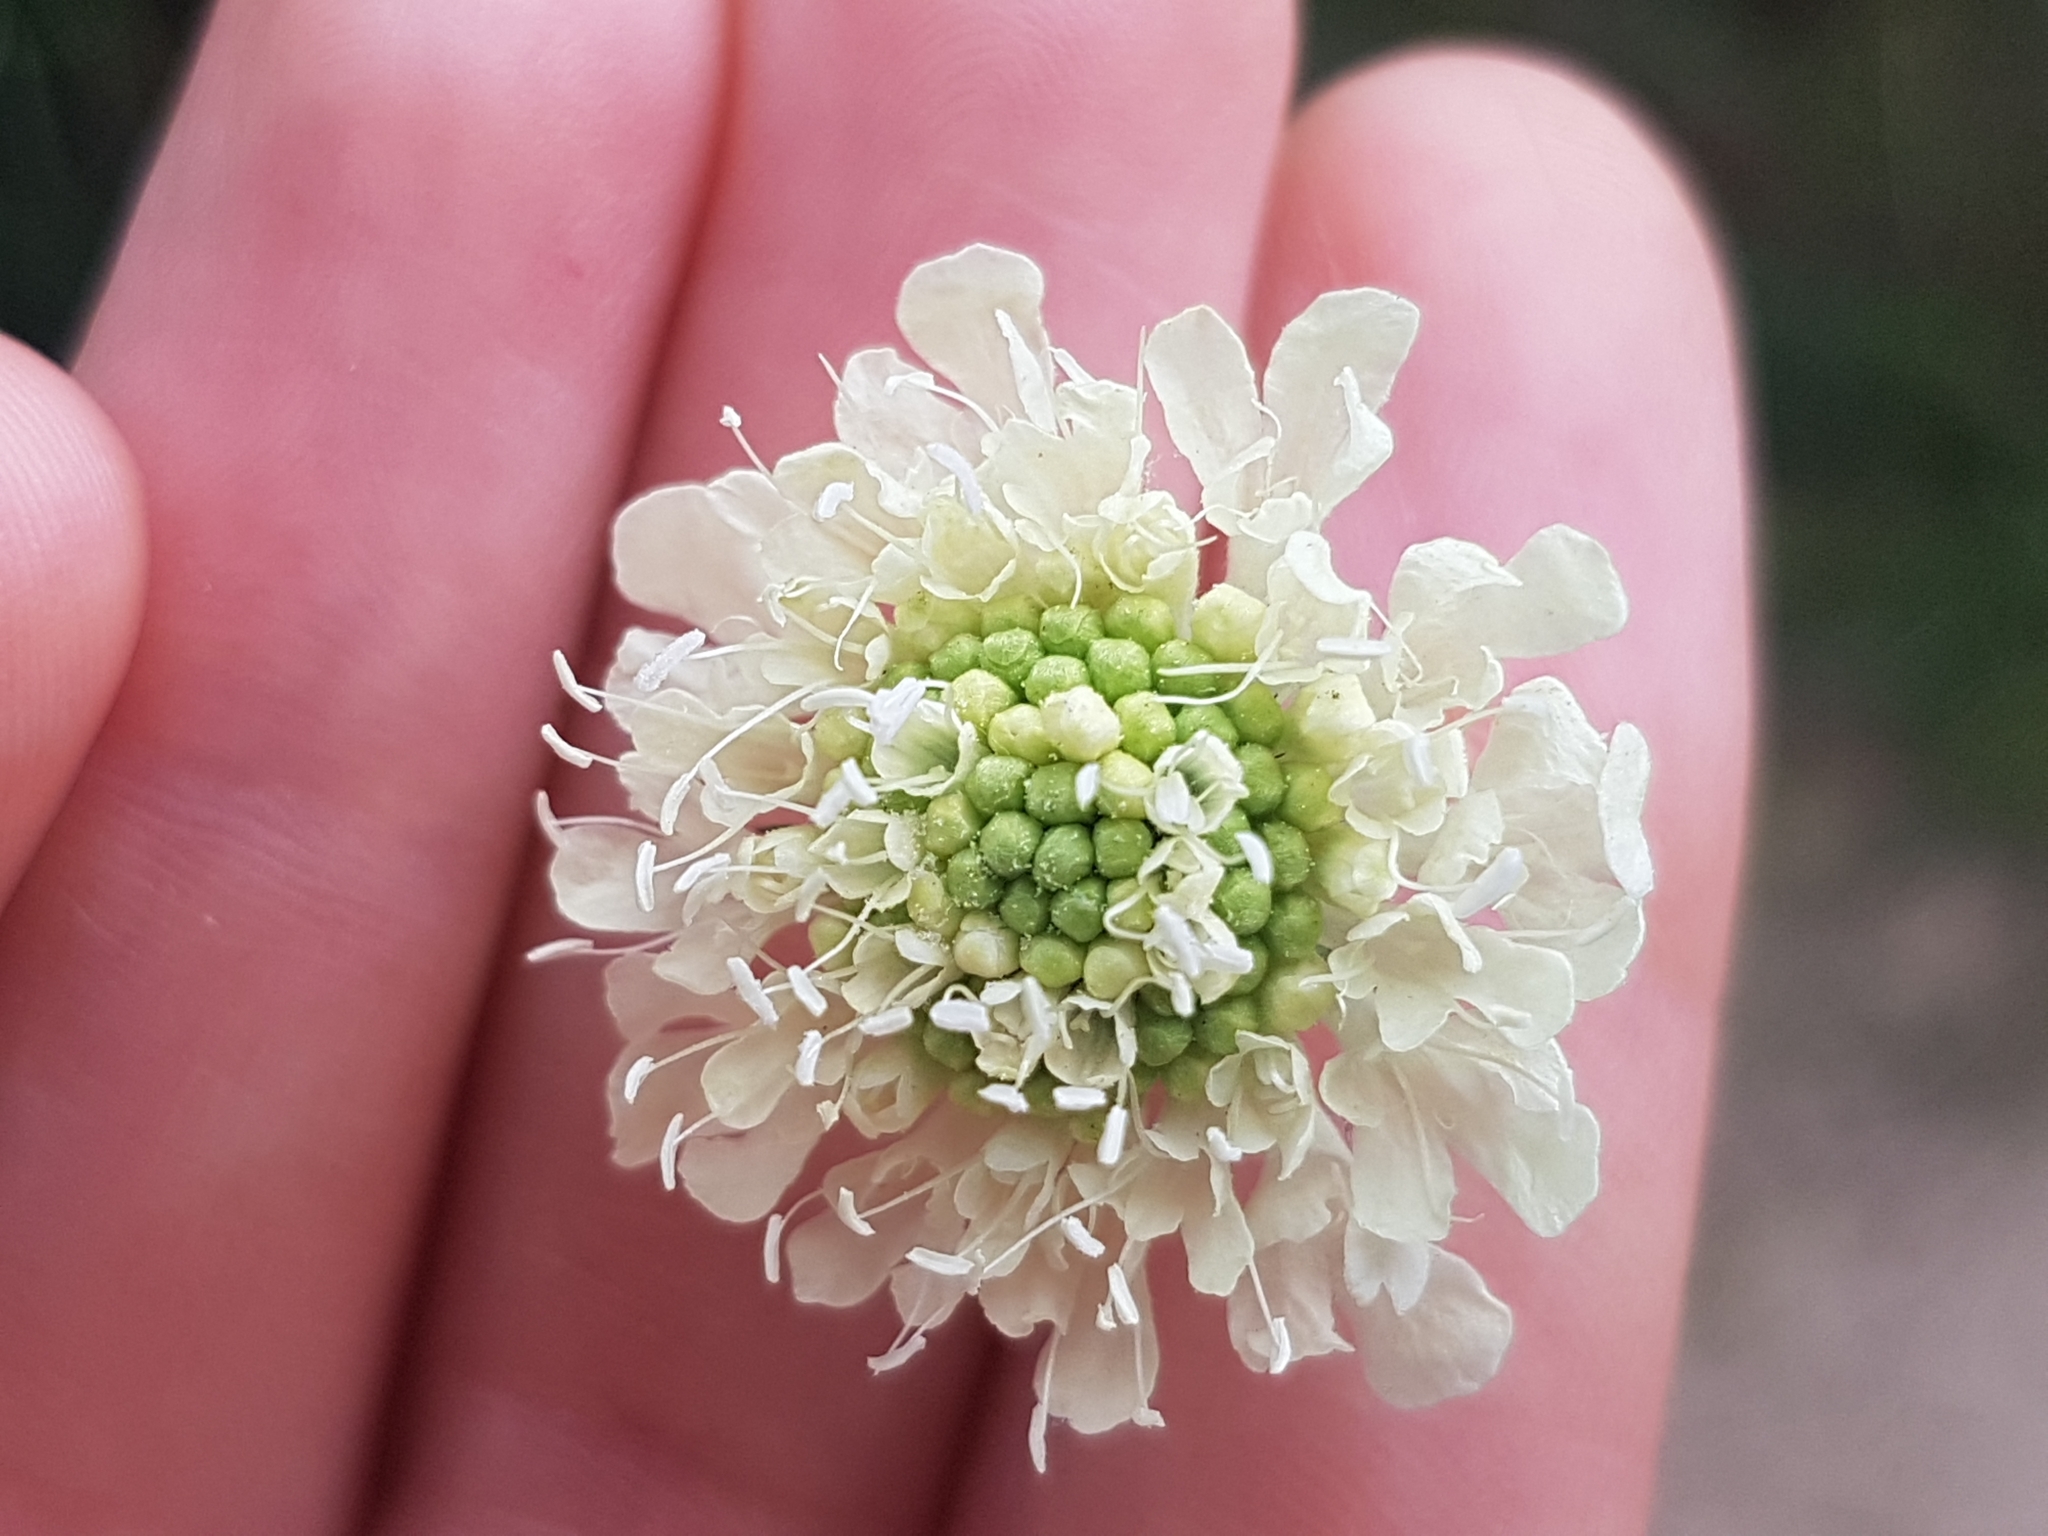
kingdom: Plantae
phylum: Tracheophyta
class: Magnoliopsida
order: Dipsacales
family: Caprifoliaceae
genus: Scabiosa
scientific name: Scabiosa ochroleuca
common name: Cream pincushions
